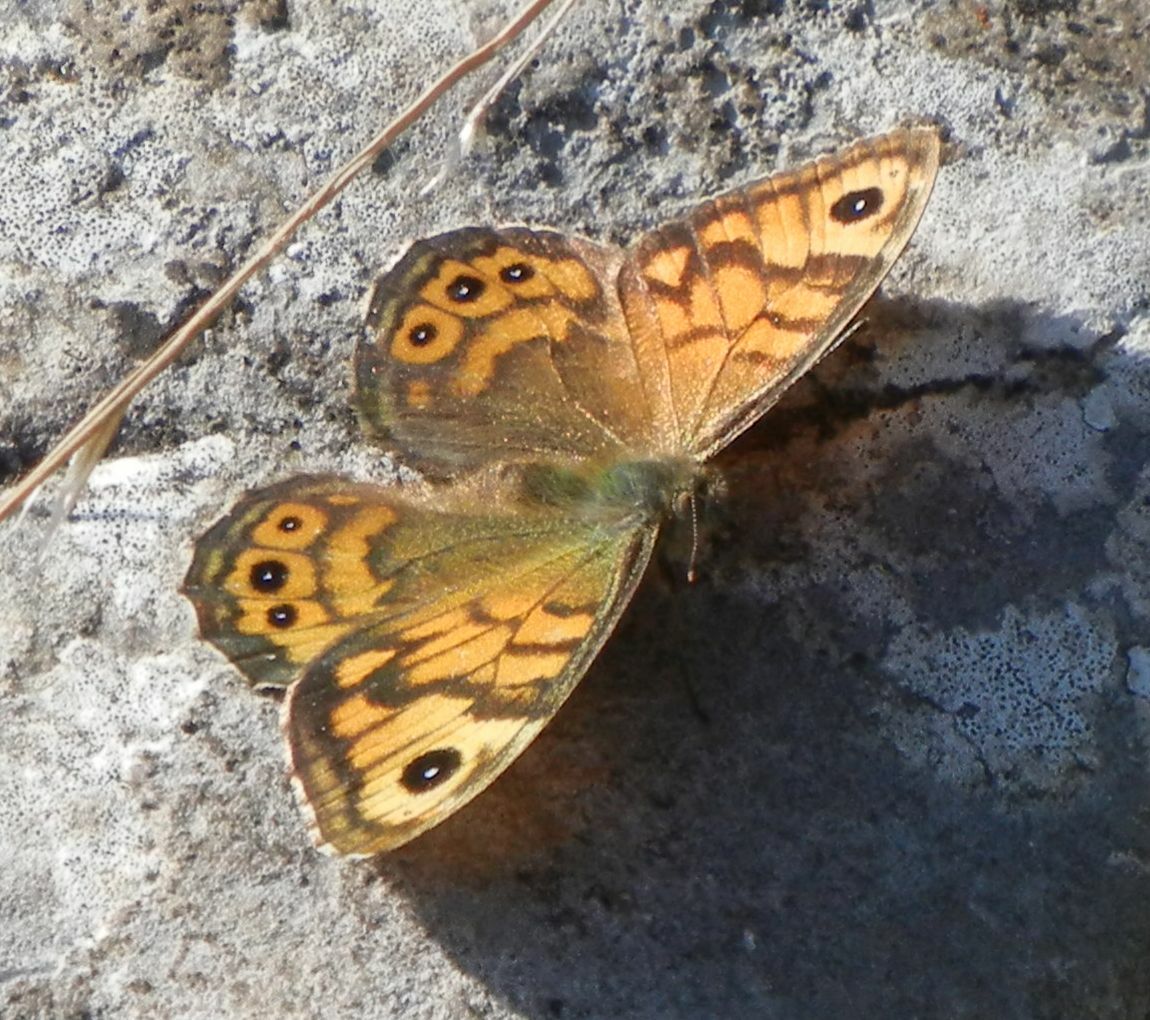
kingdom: Animalia
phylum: Arthropoda
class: Insecta
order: Lepidoptera
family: Nymphalidae
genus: Pararge
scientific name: Pararge Lasiommata megera
